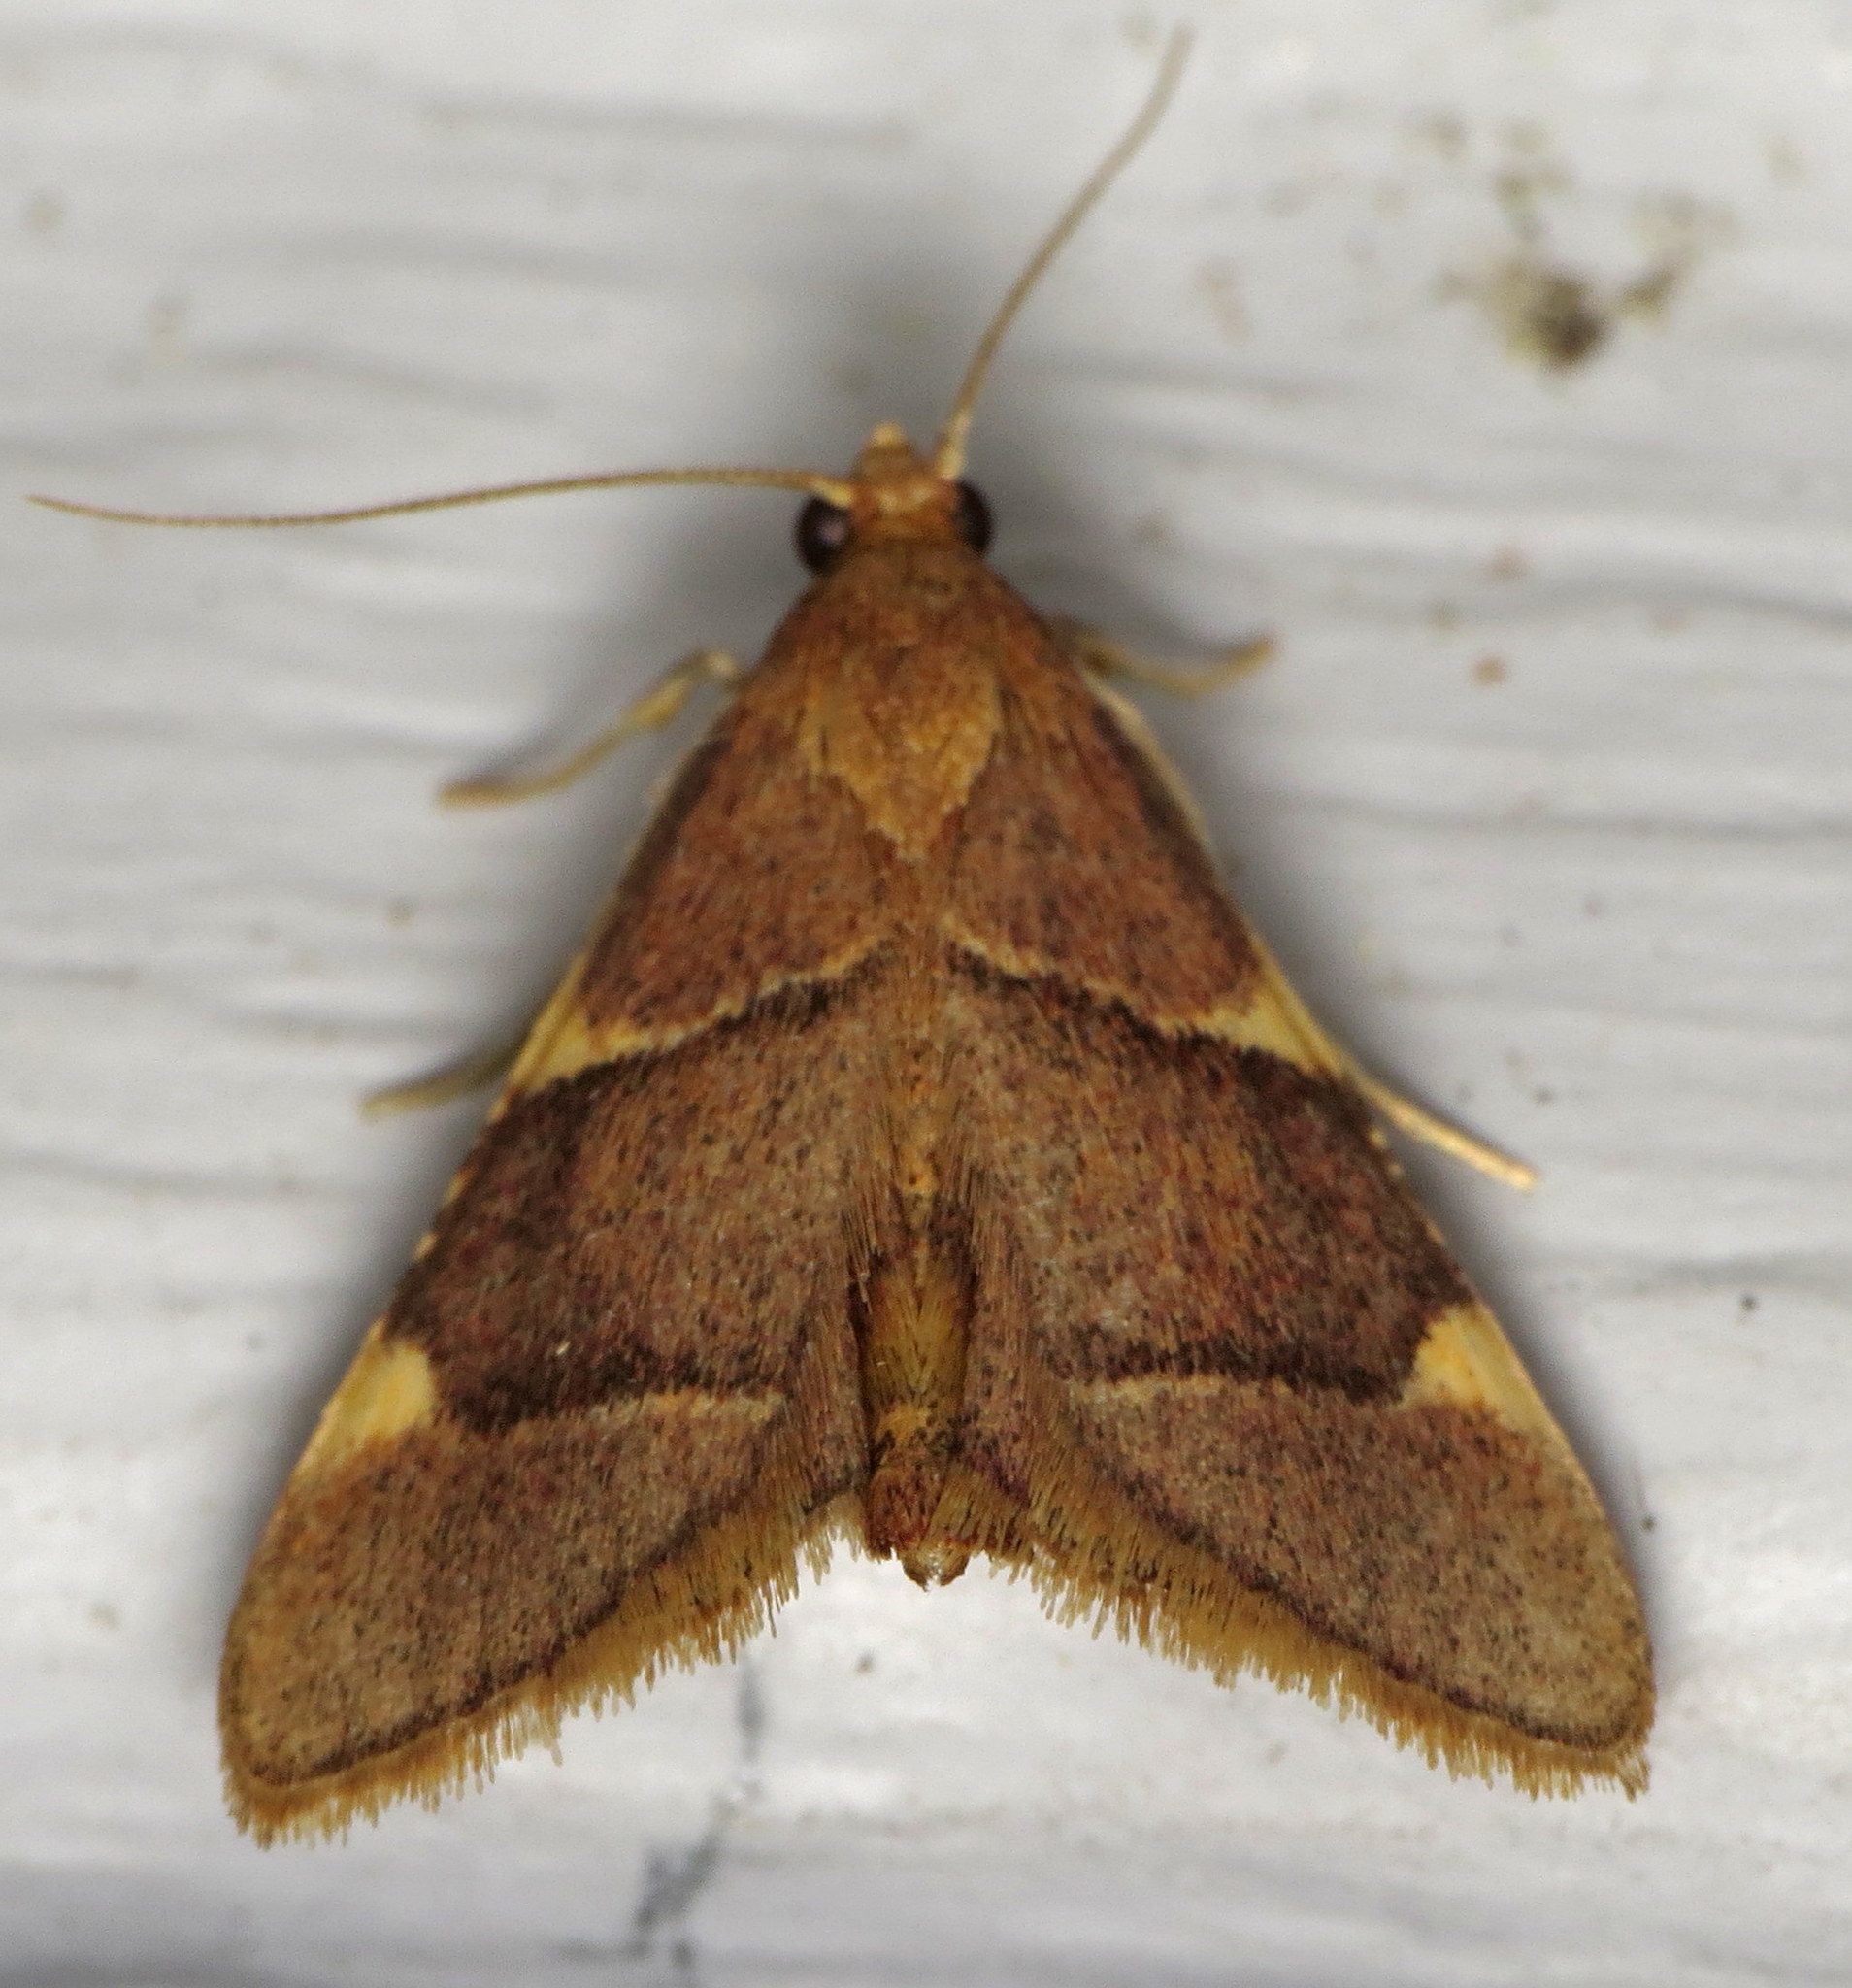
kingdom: Animalia
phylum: Arthropoda
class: Insecta
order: Lepidoptera
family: Pyralidae
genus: Hypsopygia
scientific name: Hypsopygia olinalis
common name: Yellow-fringed dolichomia moth
